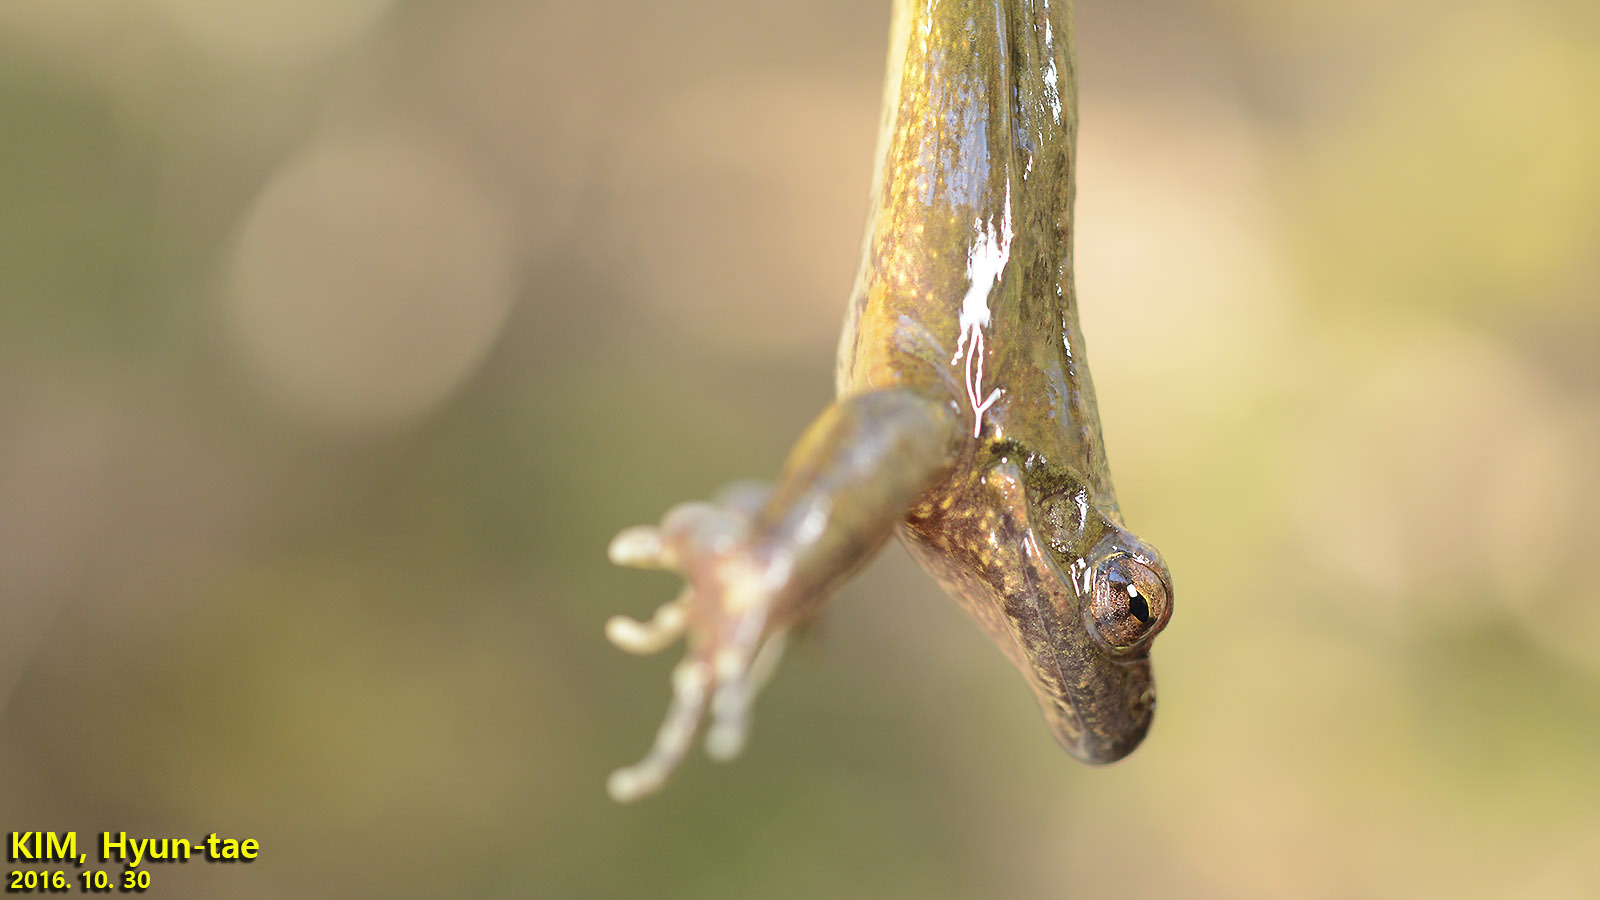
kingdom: Animalia
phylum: Chordata
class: Amphibia
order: Anura
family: Ranidae
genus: Rana
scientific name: Rana huanrenensis
